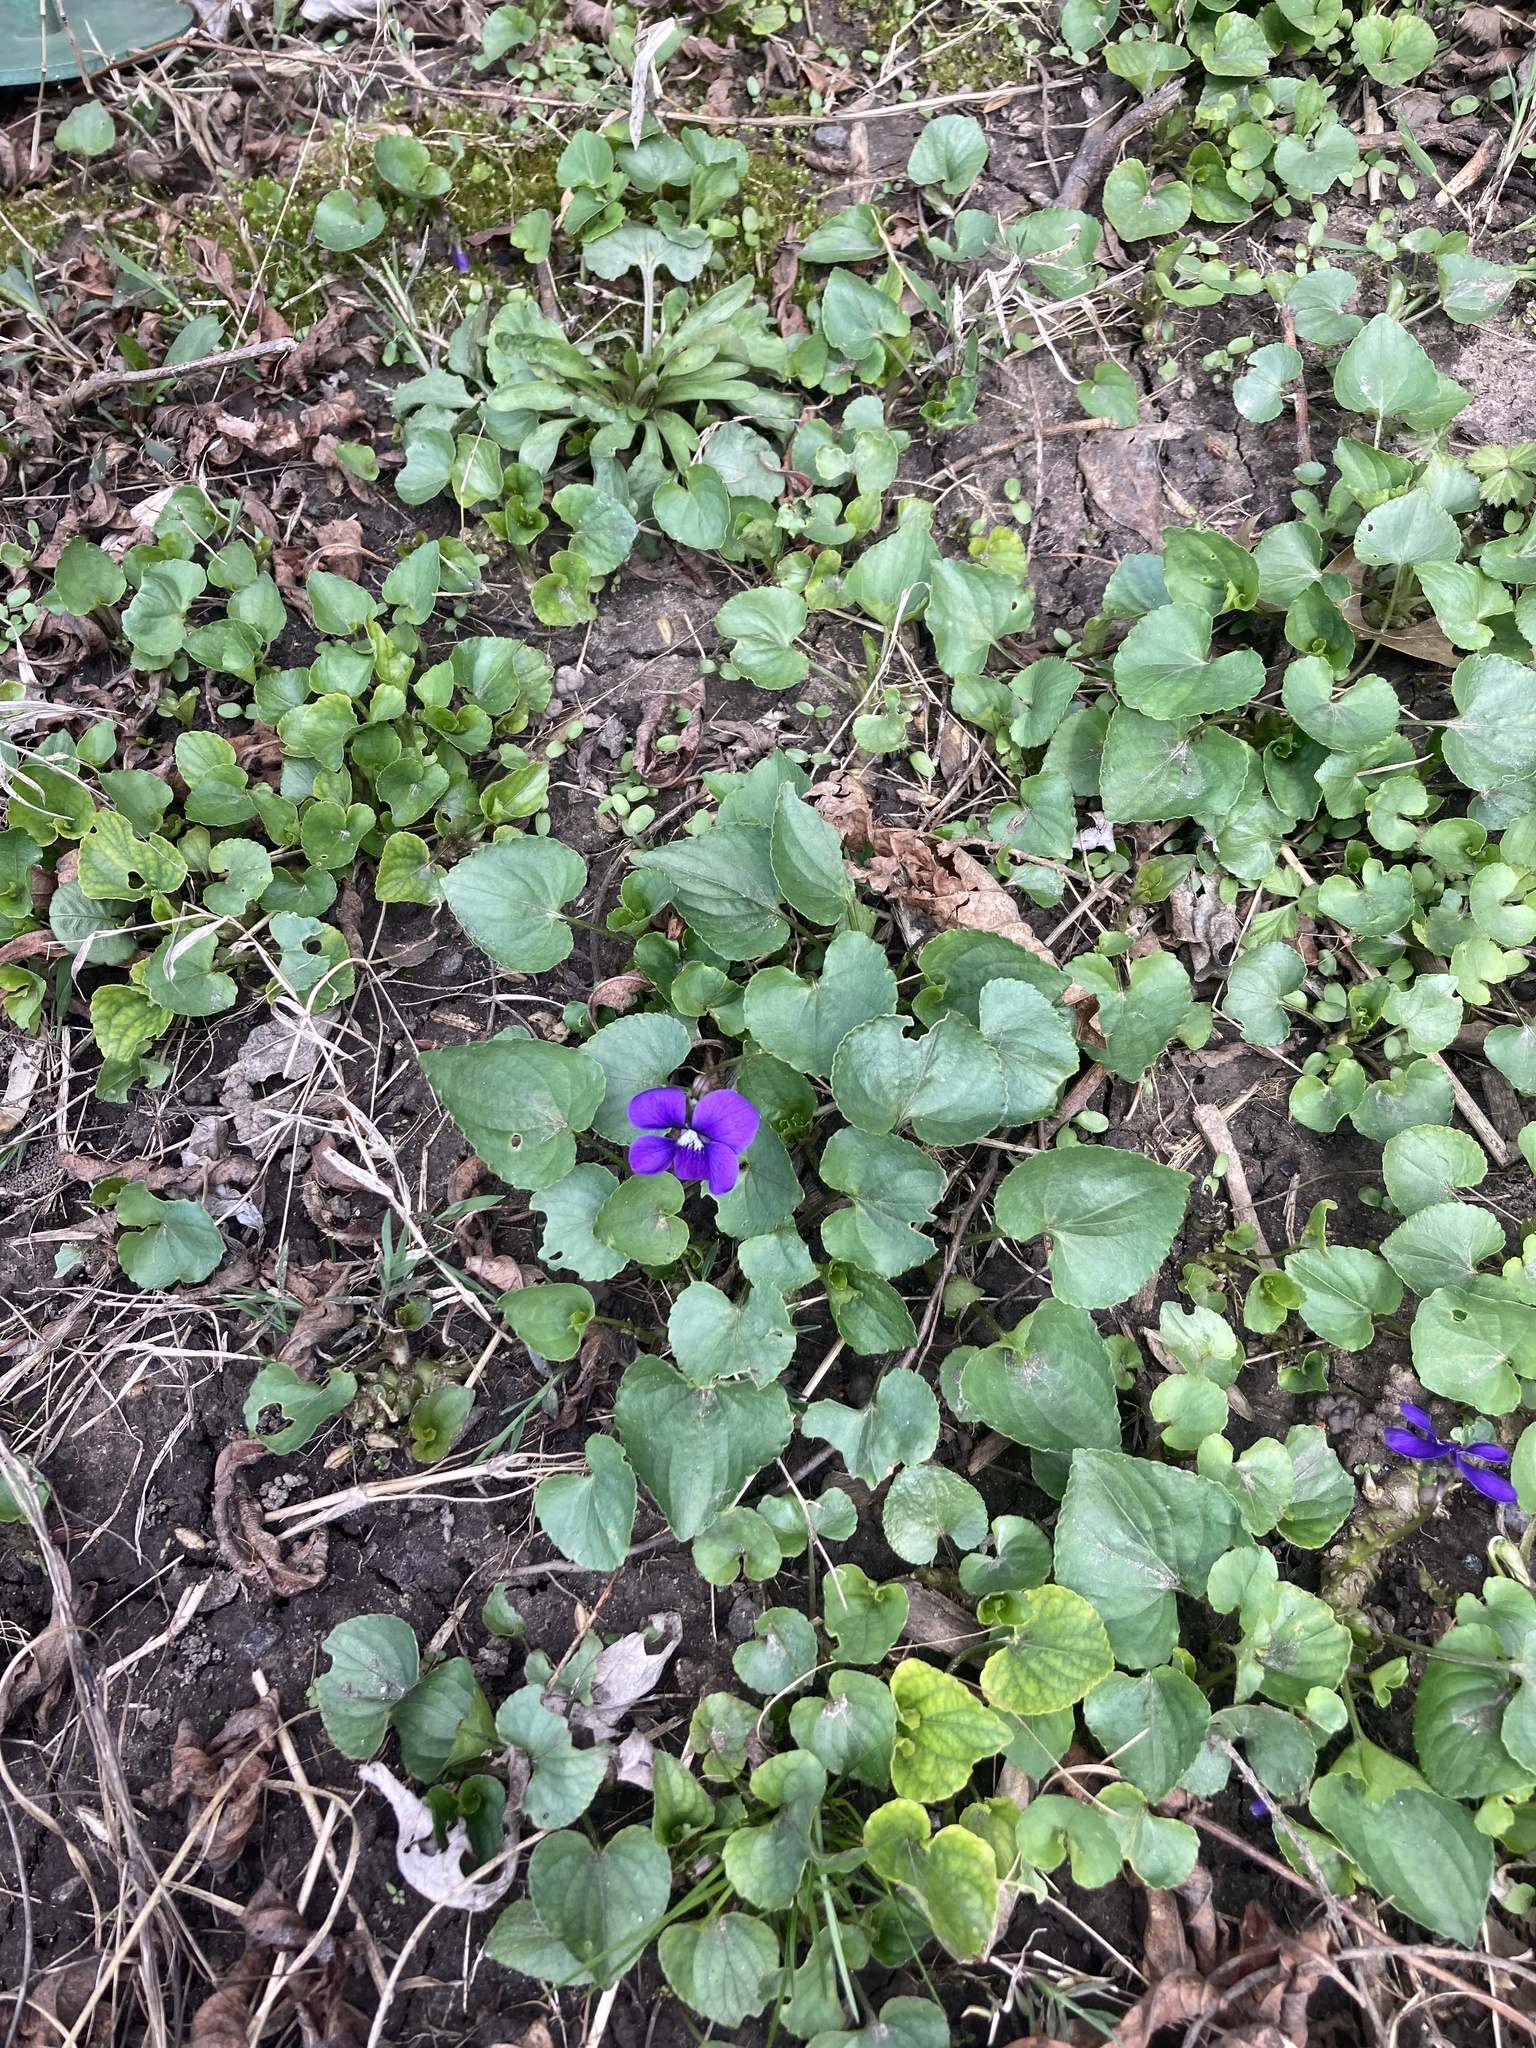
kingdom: Plantae
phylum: Tracheophyta
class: Magnoliopsida
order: Malpighiales
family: Violaceae
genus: Viola
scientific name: Viola sororia
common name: Dooryard violet
